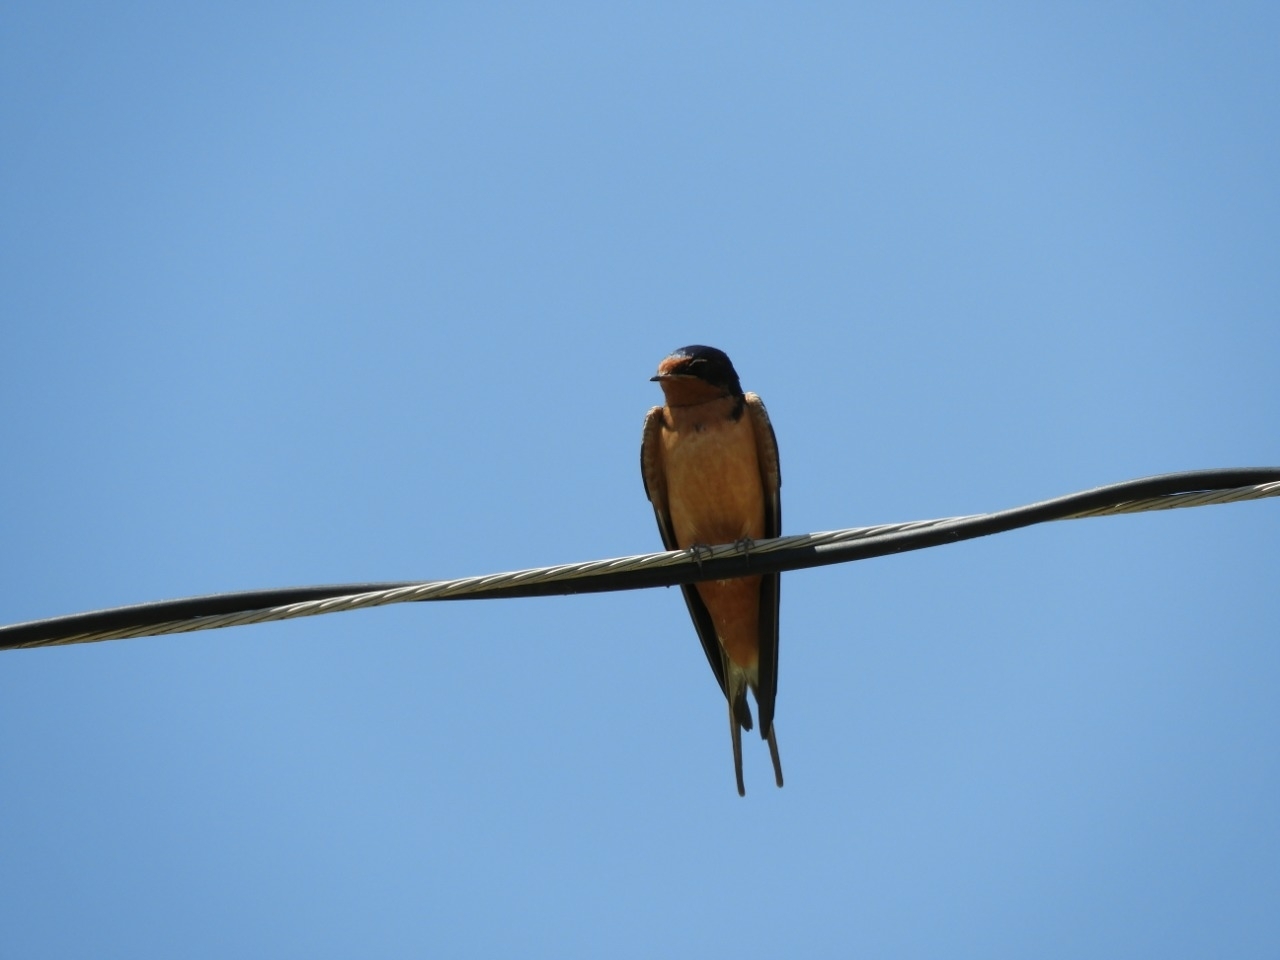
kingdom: Animalia
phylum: Chordata
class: Aves
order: Passeriformes
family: Hirundinidae
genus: Hirundo
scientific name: Hirundo rustica
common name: Barn swallow
